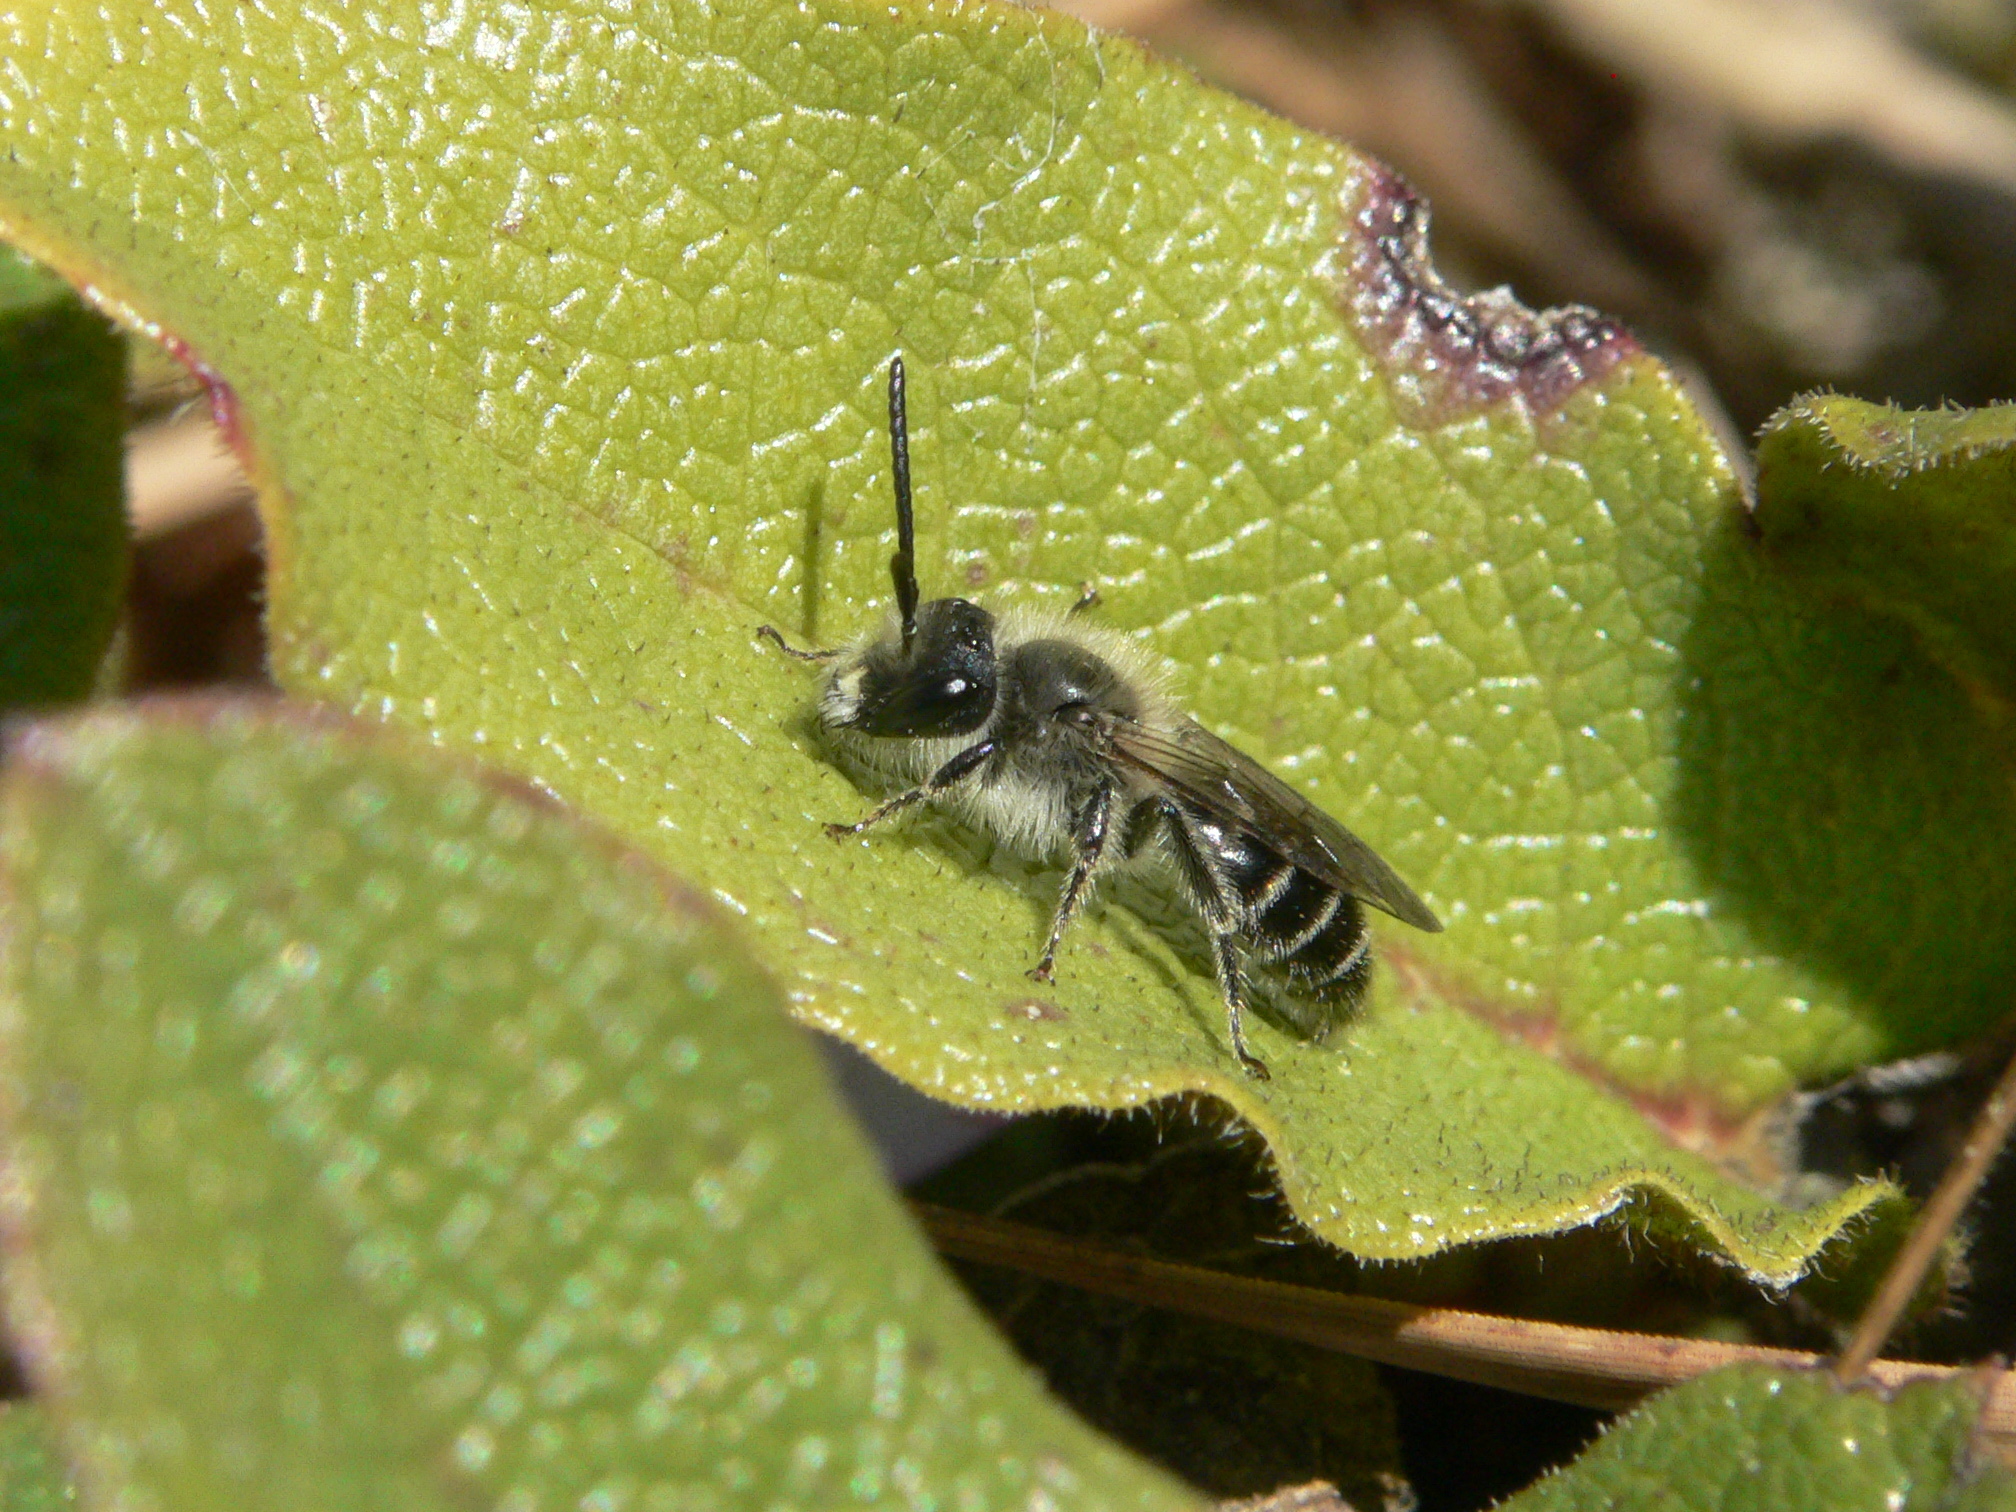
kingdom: Animalia
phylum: Arthropoda
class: Insecta
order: Hymenoptera
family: Andrenidae
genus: Andrena
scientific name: Andrena bradleyi
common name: Bradley's mining bee
